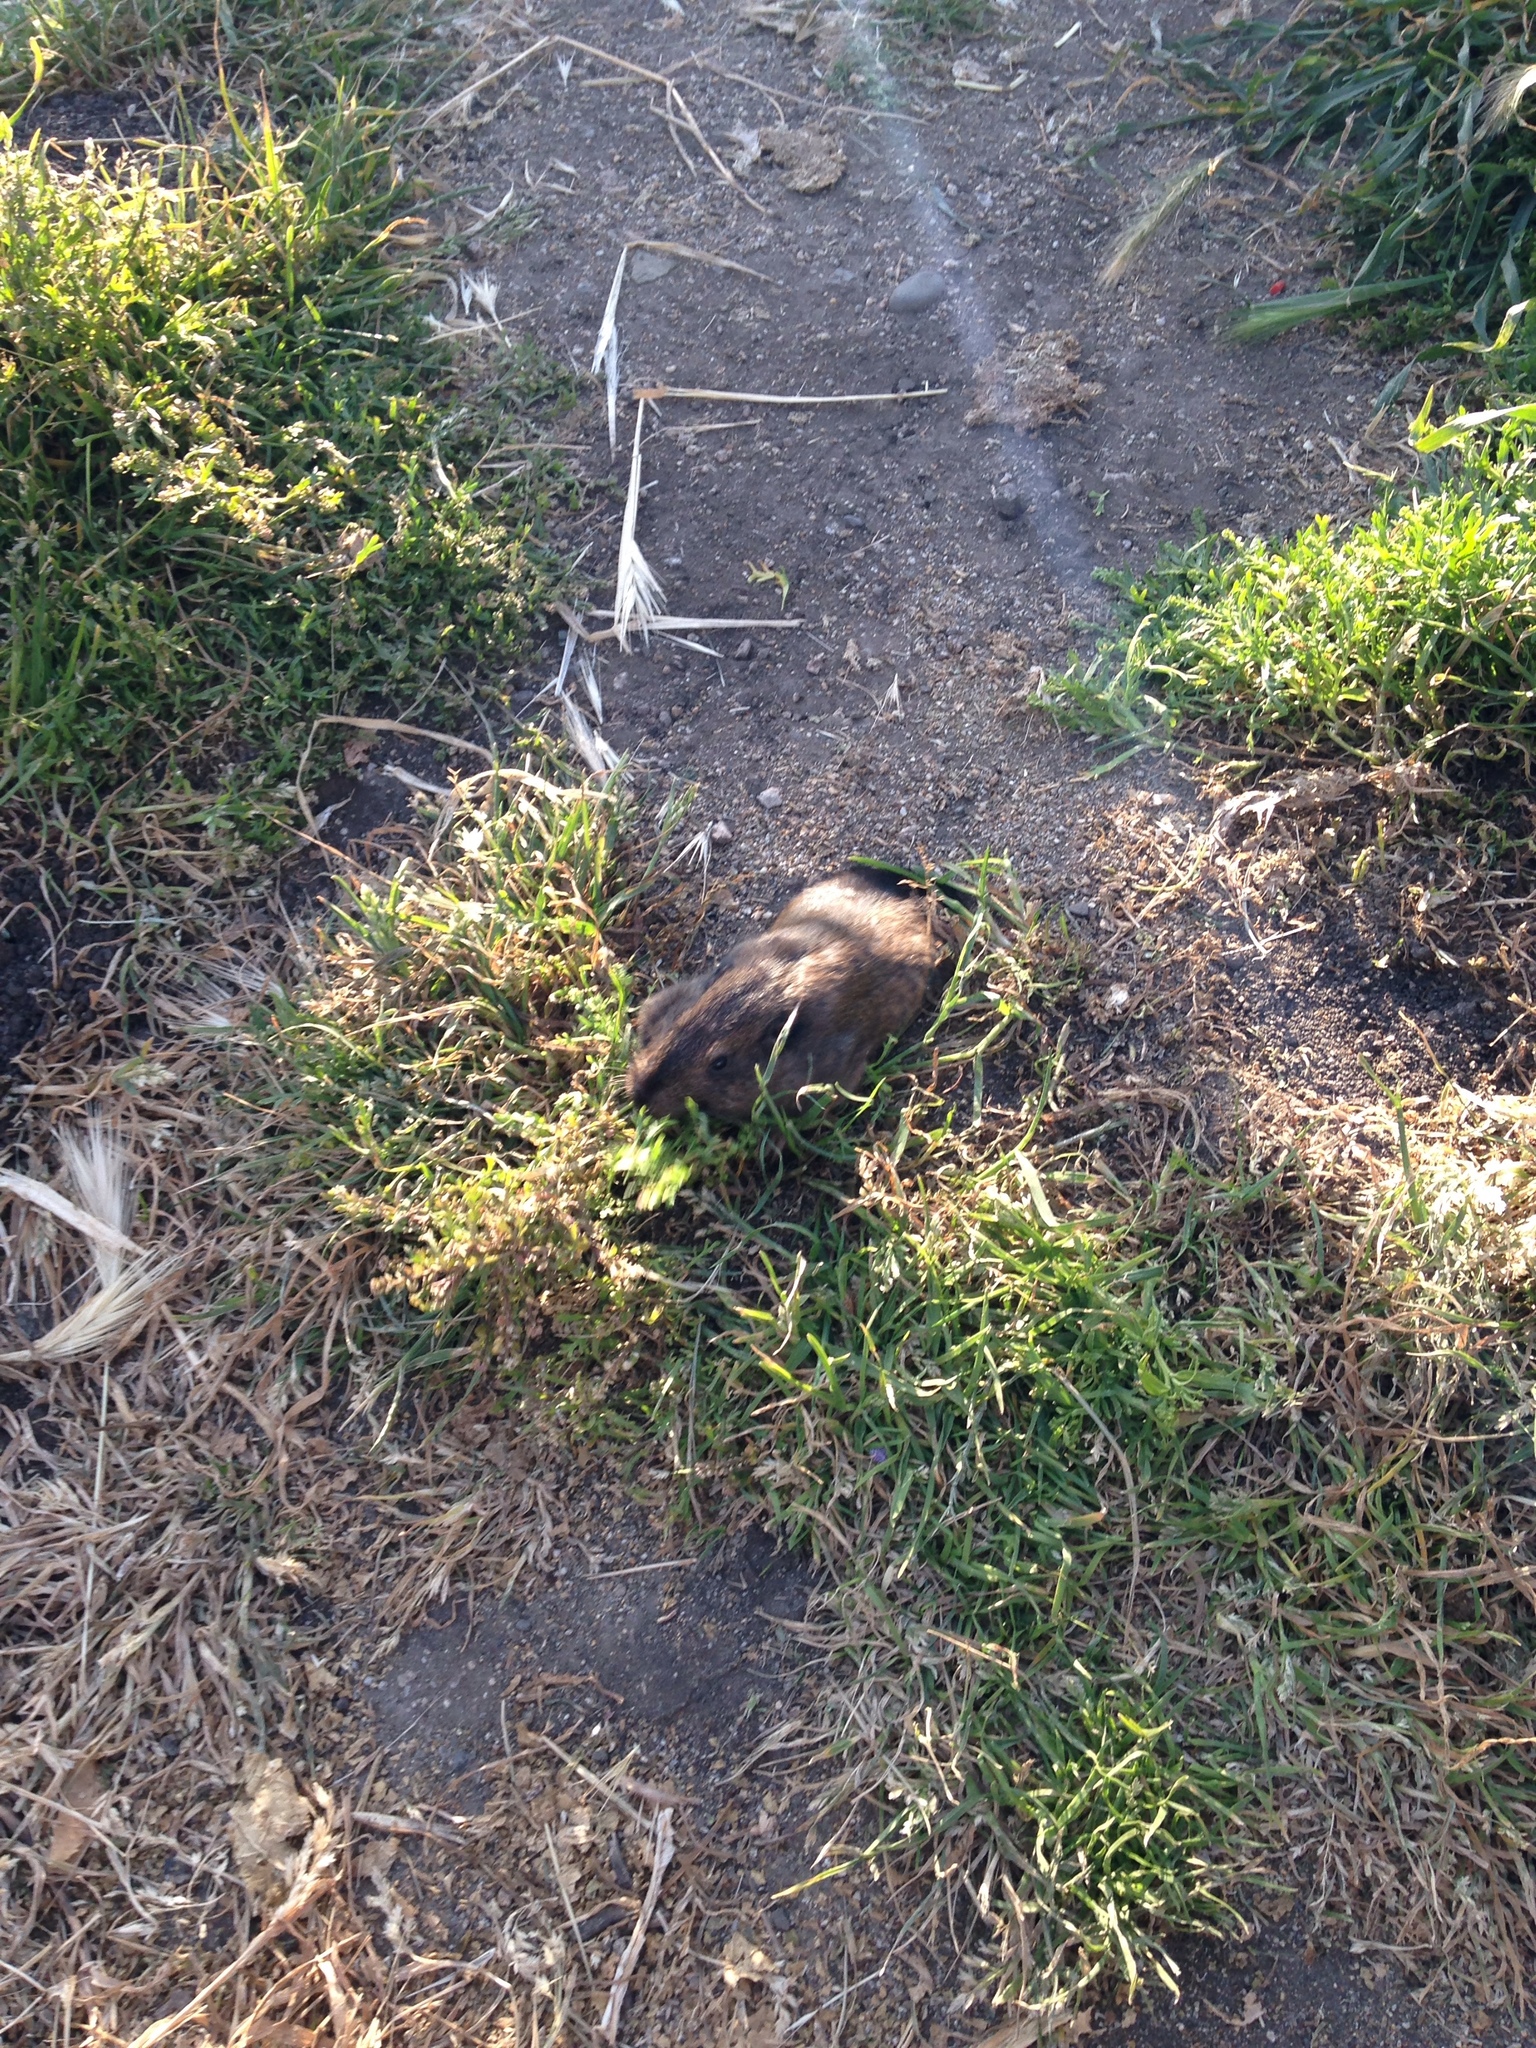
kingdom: Animalia
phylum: Chordata
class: Mammalia
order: Rodentia
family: Geomyidae
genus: Thomomys
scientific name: Thomomys bottae
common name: Botta's pocket gopher
